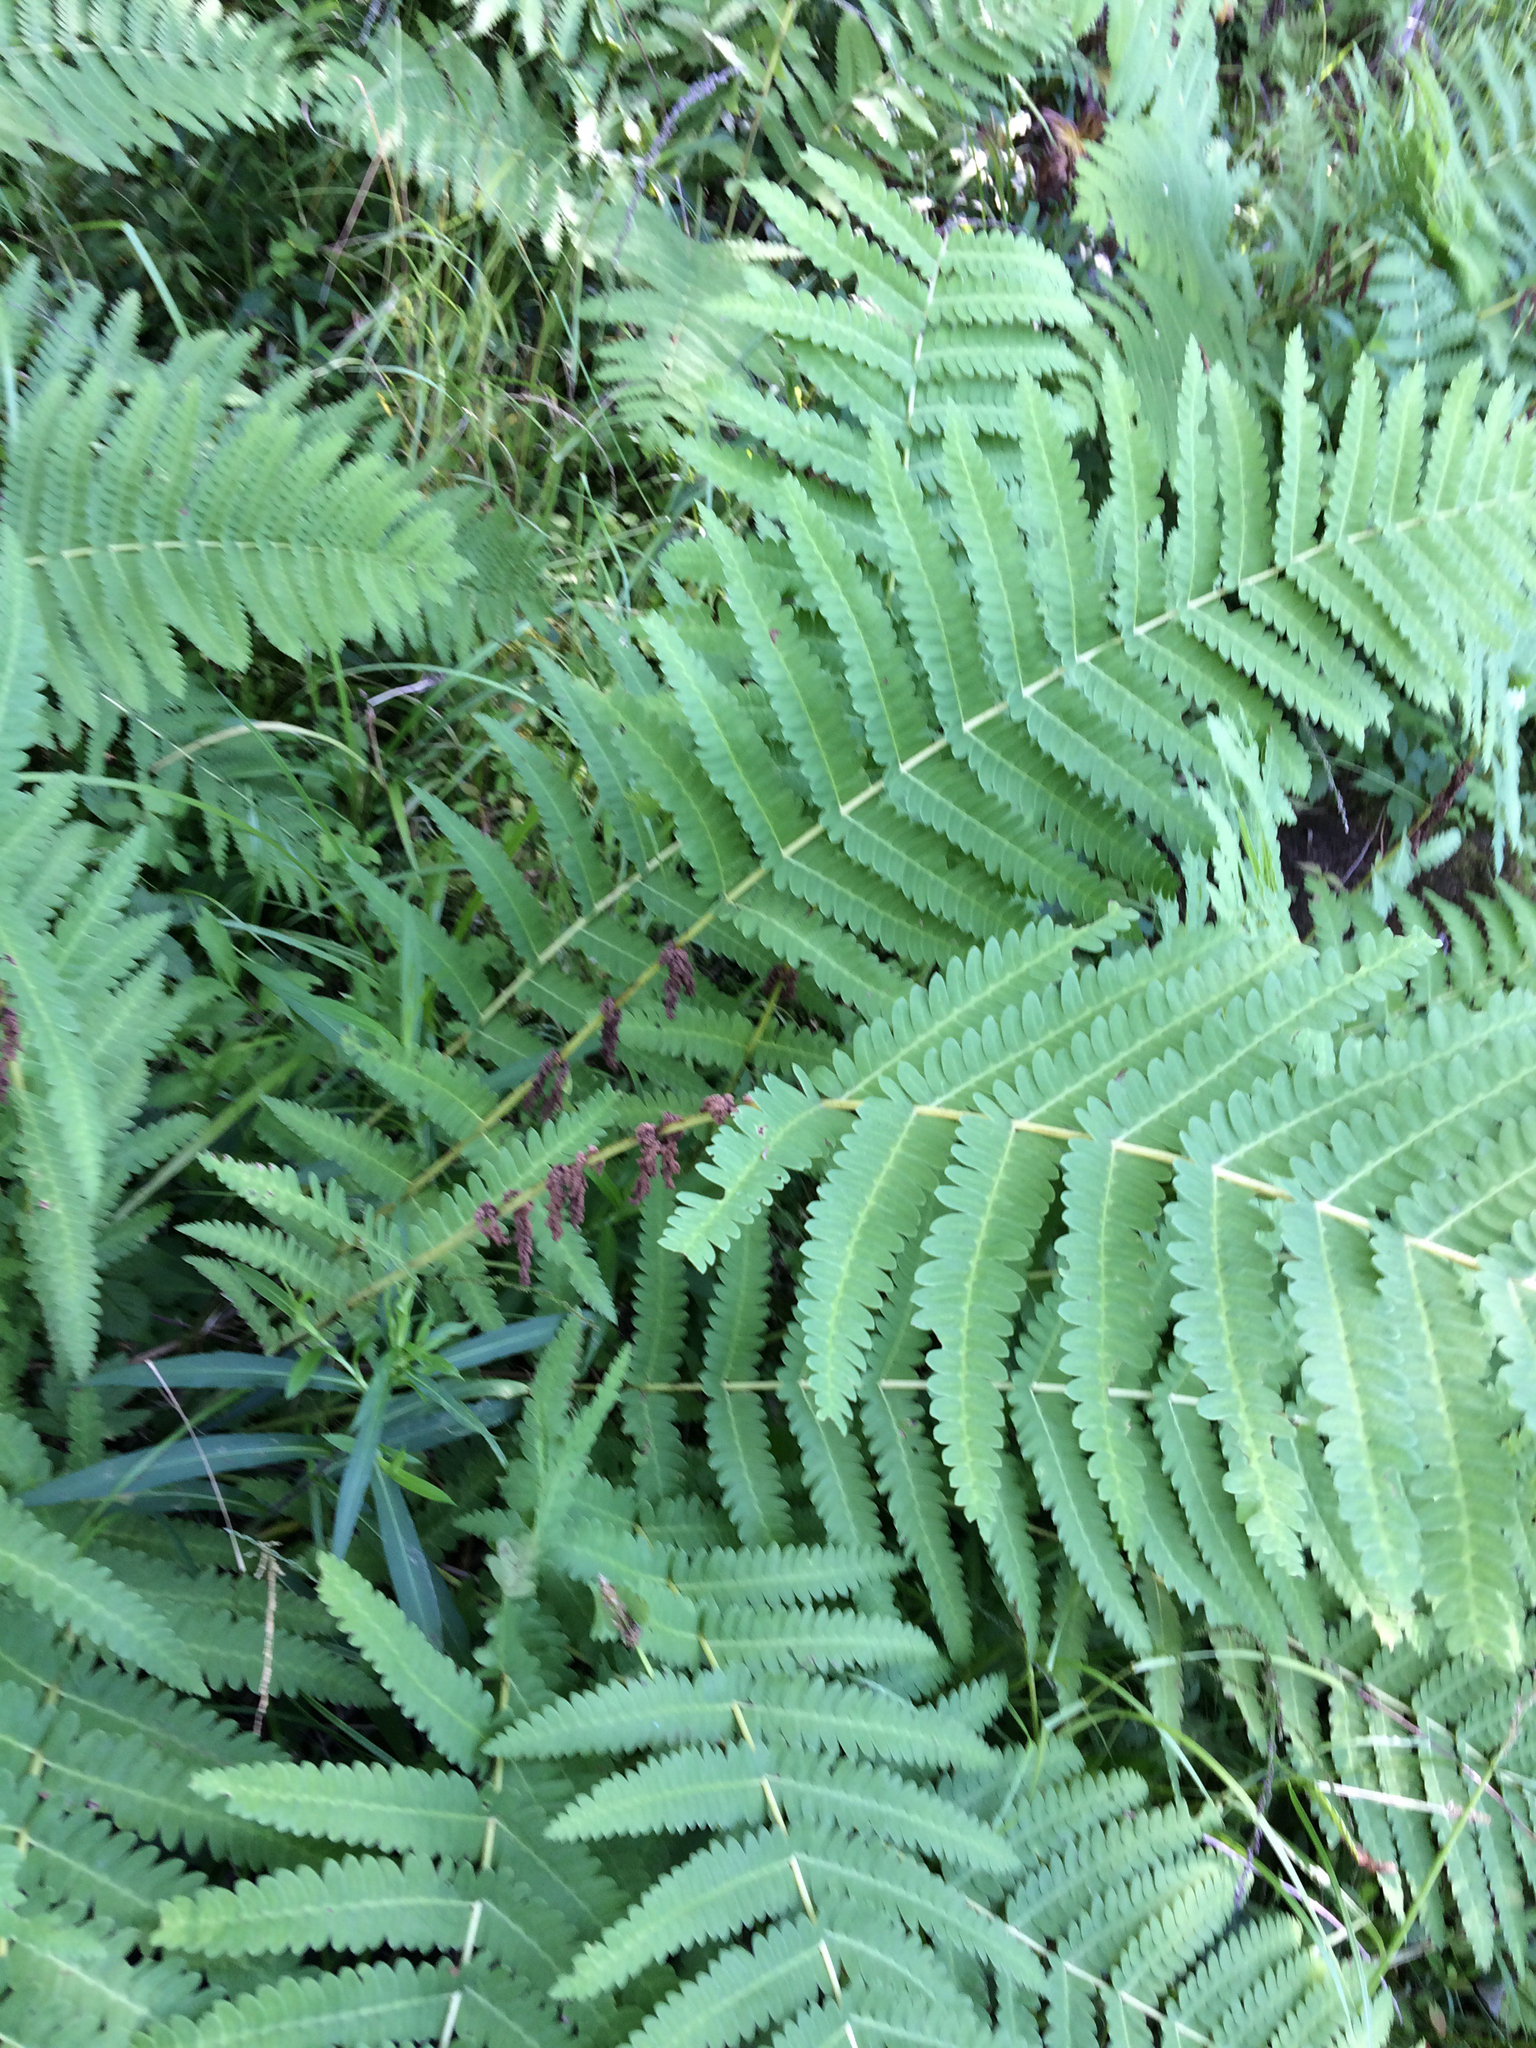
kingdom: Plantae
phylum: Tracheophyta
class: Polypodiopsida
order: Osmundales
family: Osmundaceae
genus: Claytosmunda
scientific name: Claytosmunda claytoniana
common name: Clayton's fern
